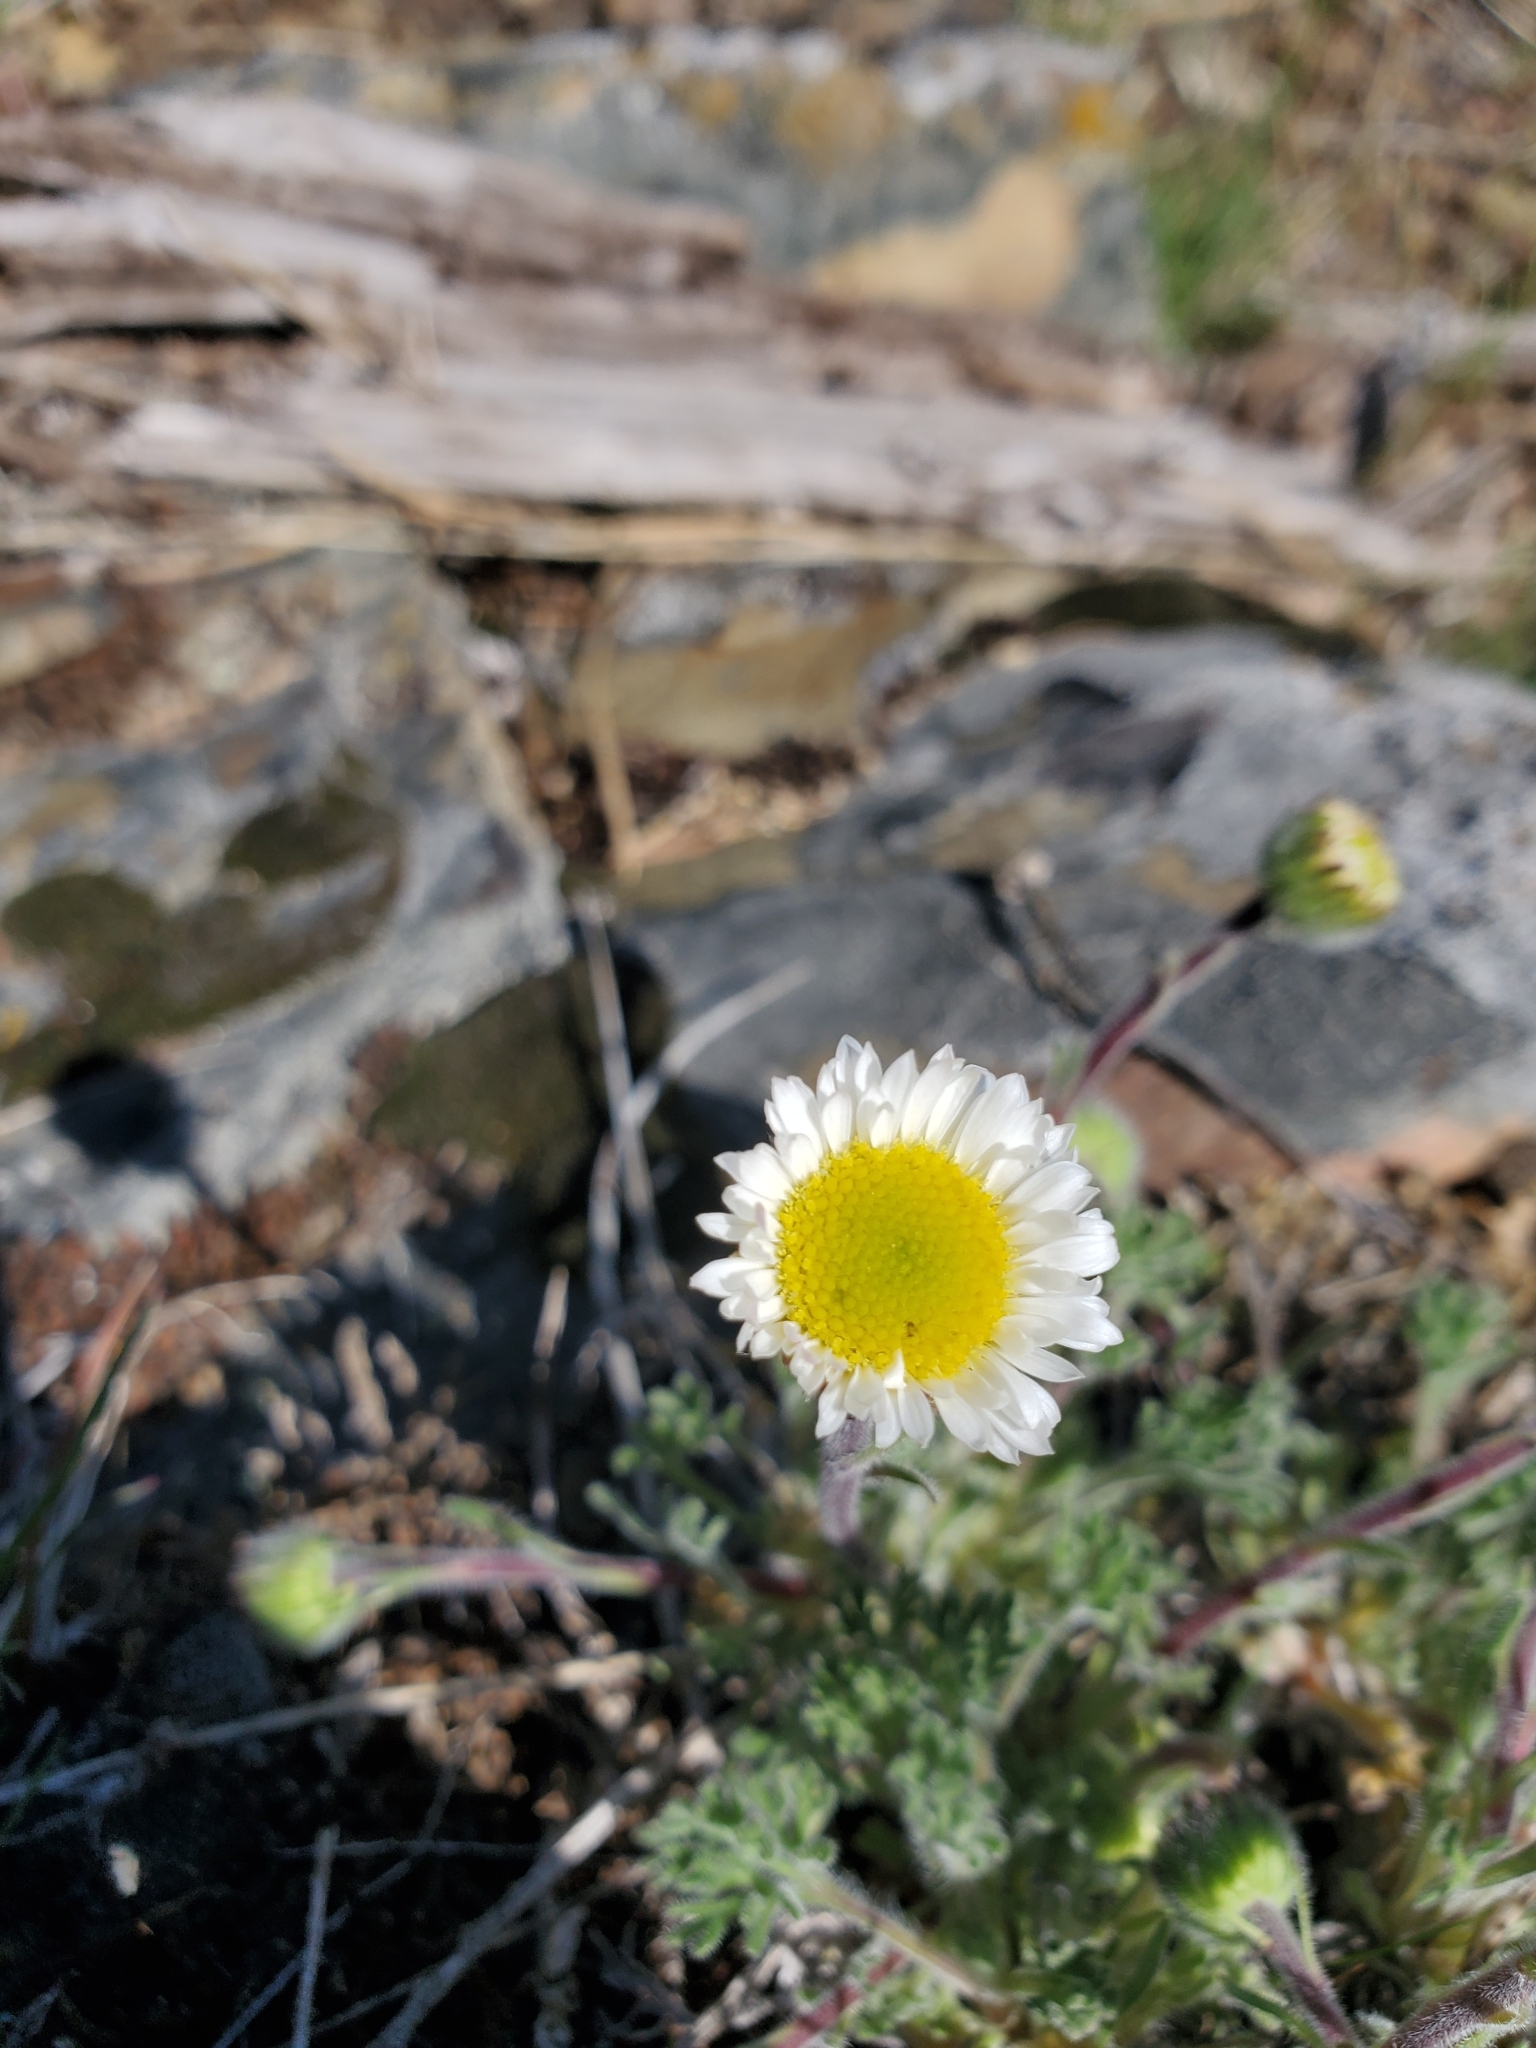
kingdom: Plantae
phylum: Tracheophyta
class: Magnoliopsida
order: Asterales
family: Asteraceae
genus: Erigeron
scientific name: Erigeron compositus
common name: Dwarf mountain fleabane
